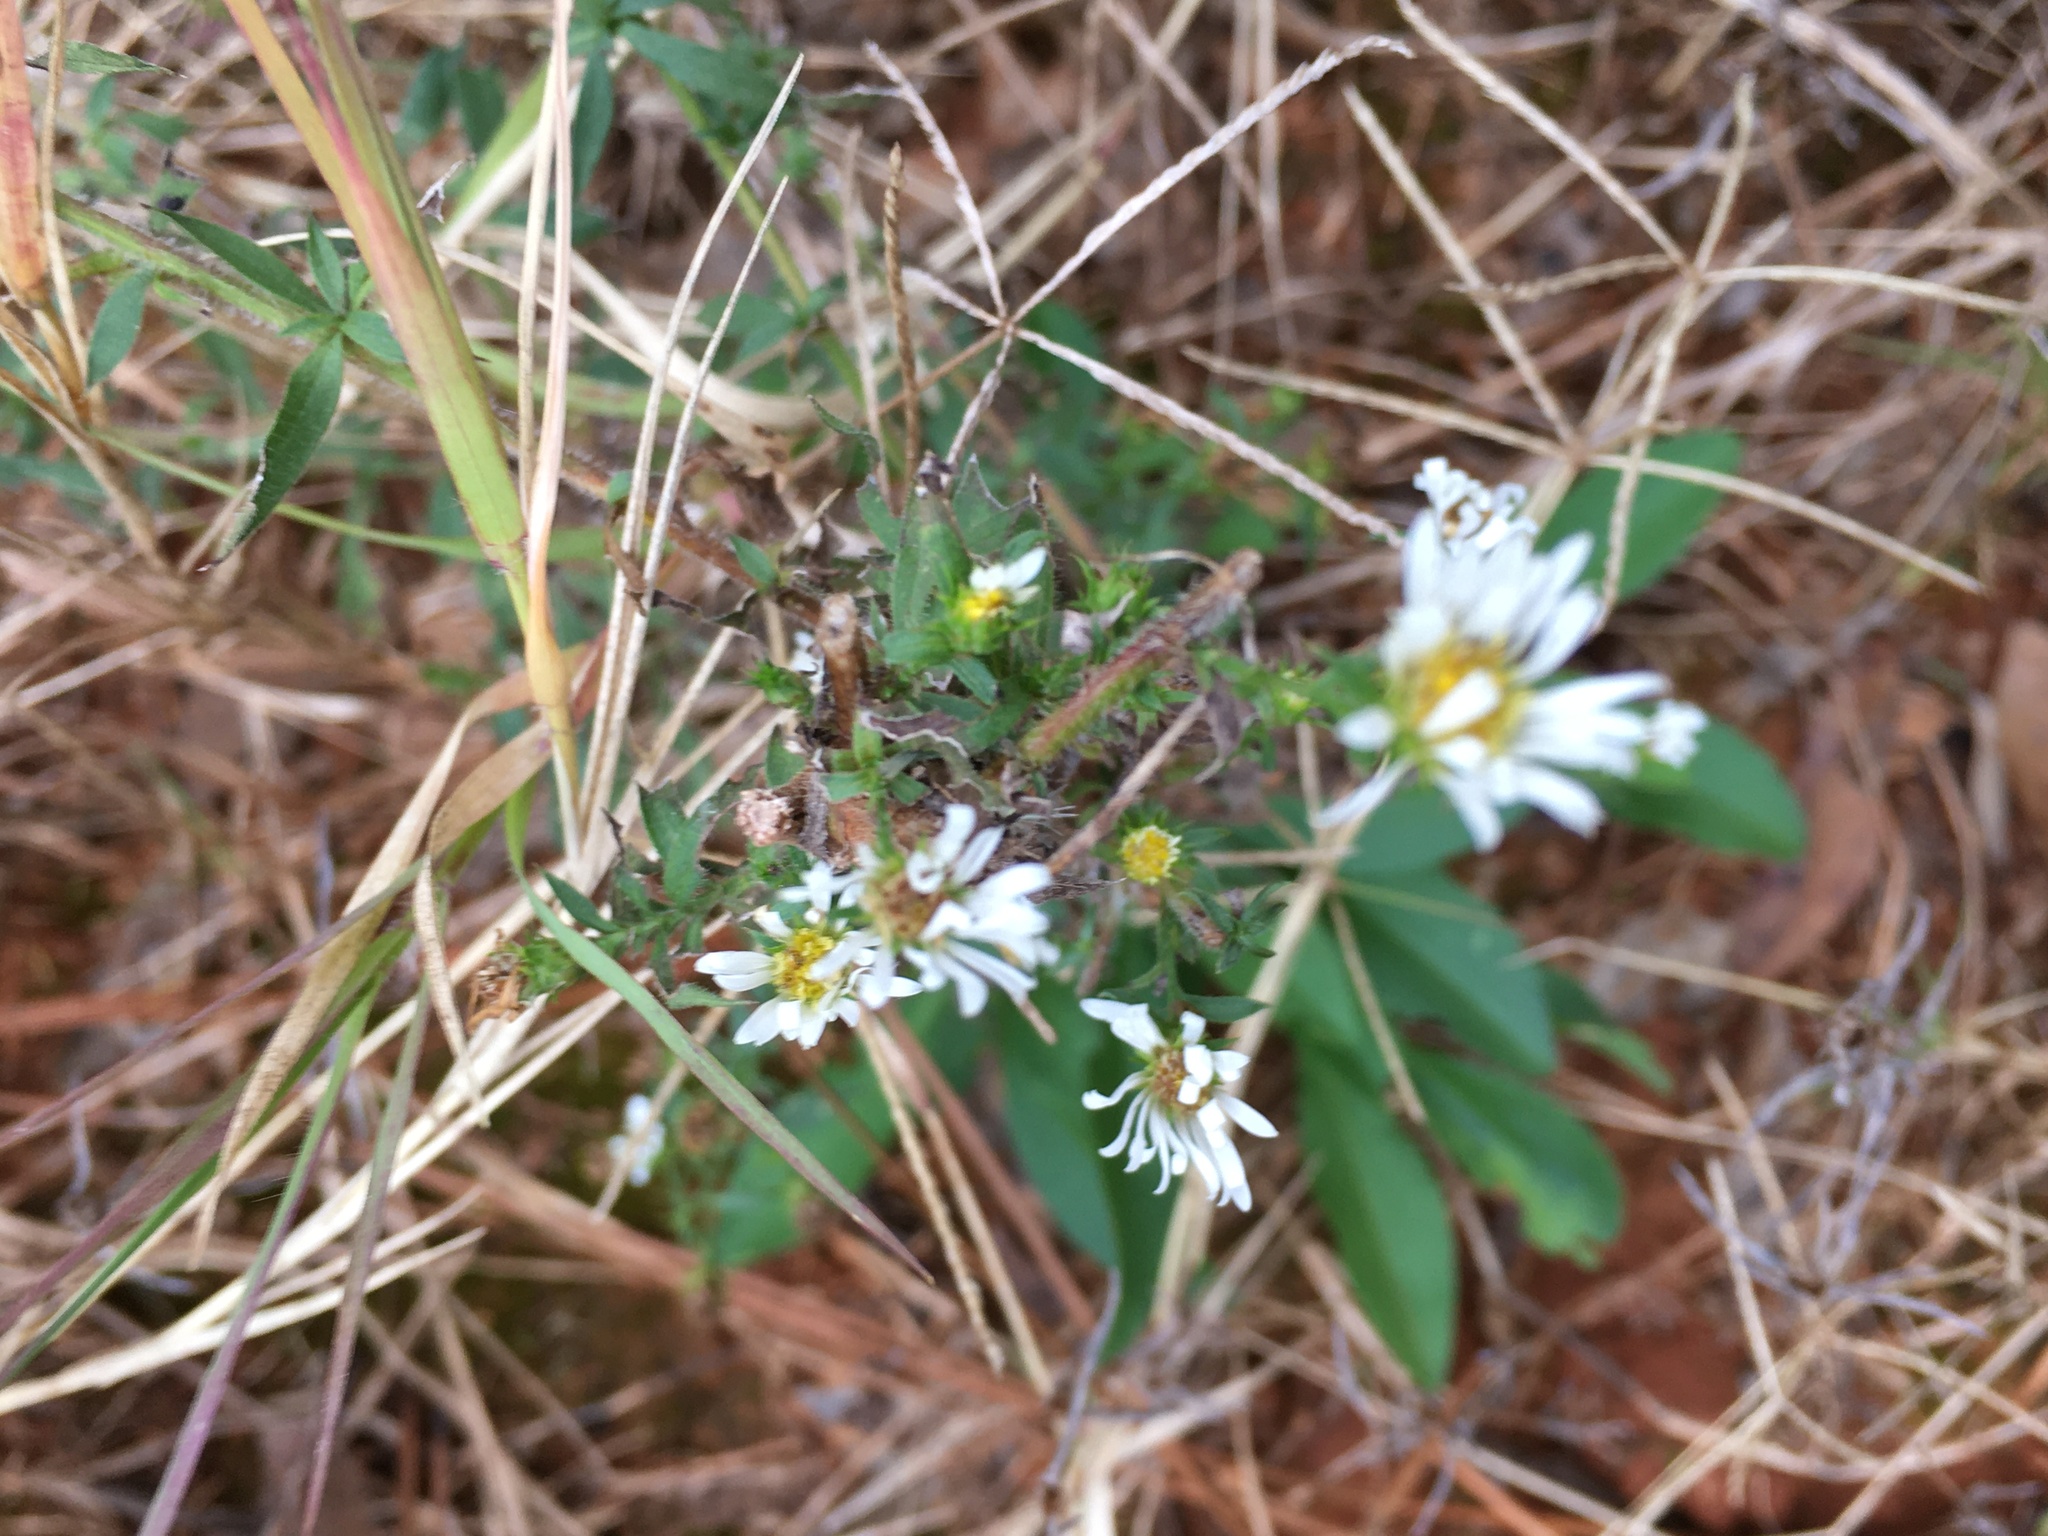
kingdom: Plantae
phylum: Tracheophyta
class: Magnoliopsida
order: Asterales
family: Asteraceae
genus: Symphyotrichum
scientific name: Symphyotrichum pilosum
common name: Awl aster
